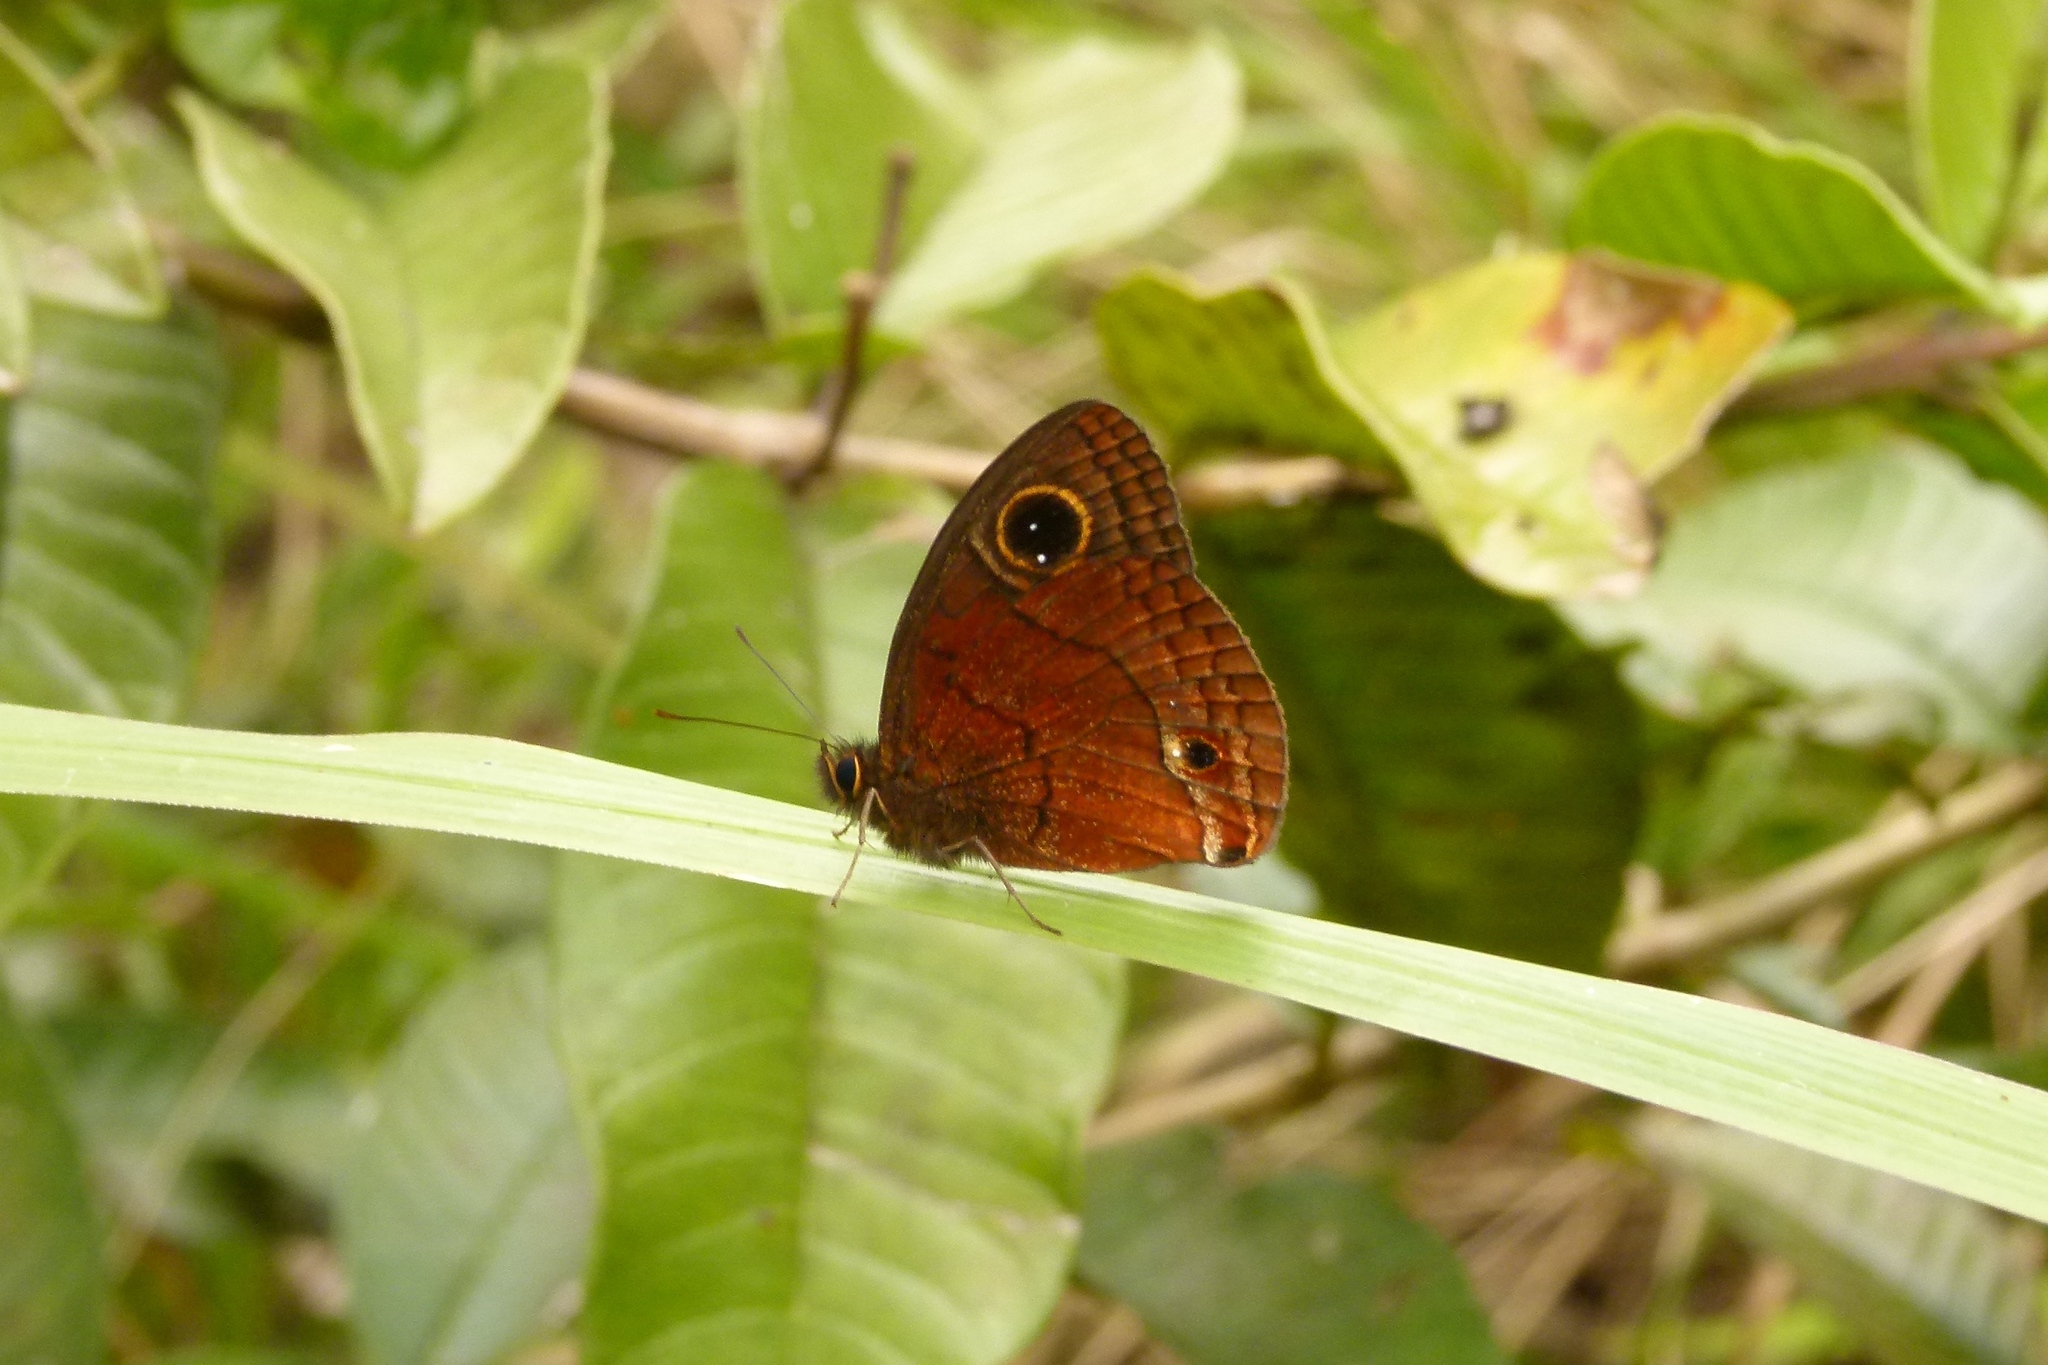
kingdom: Animalia
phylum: Arthropoda
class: Insecta
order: Lepidoptera
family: Nymphalidae
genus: Calisto
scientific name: Calisto nubila
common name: Puerto rican calisto
